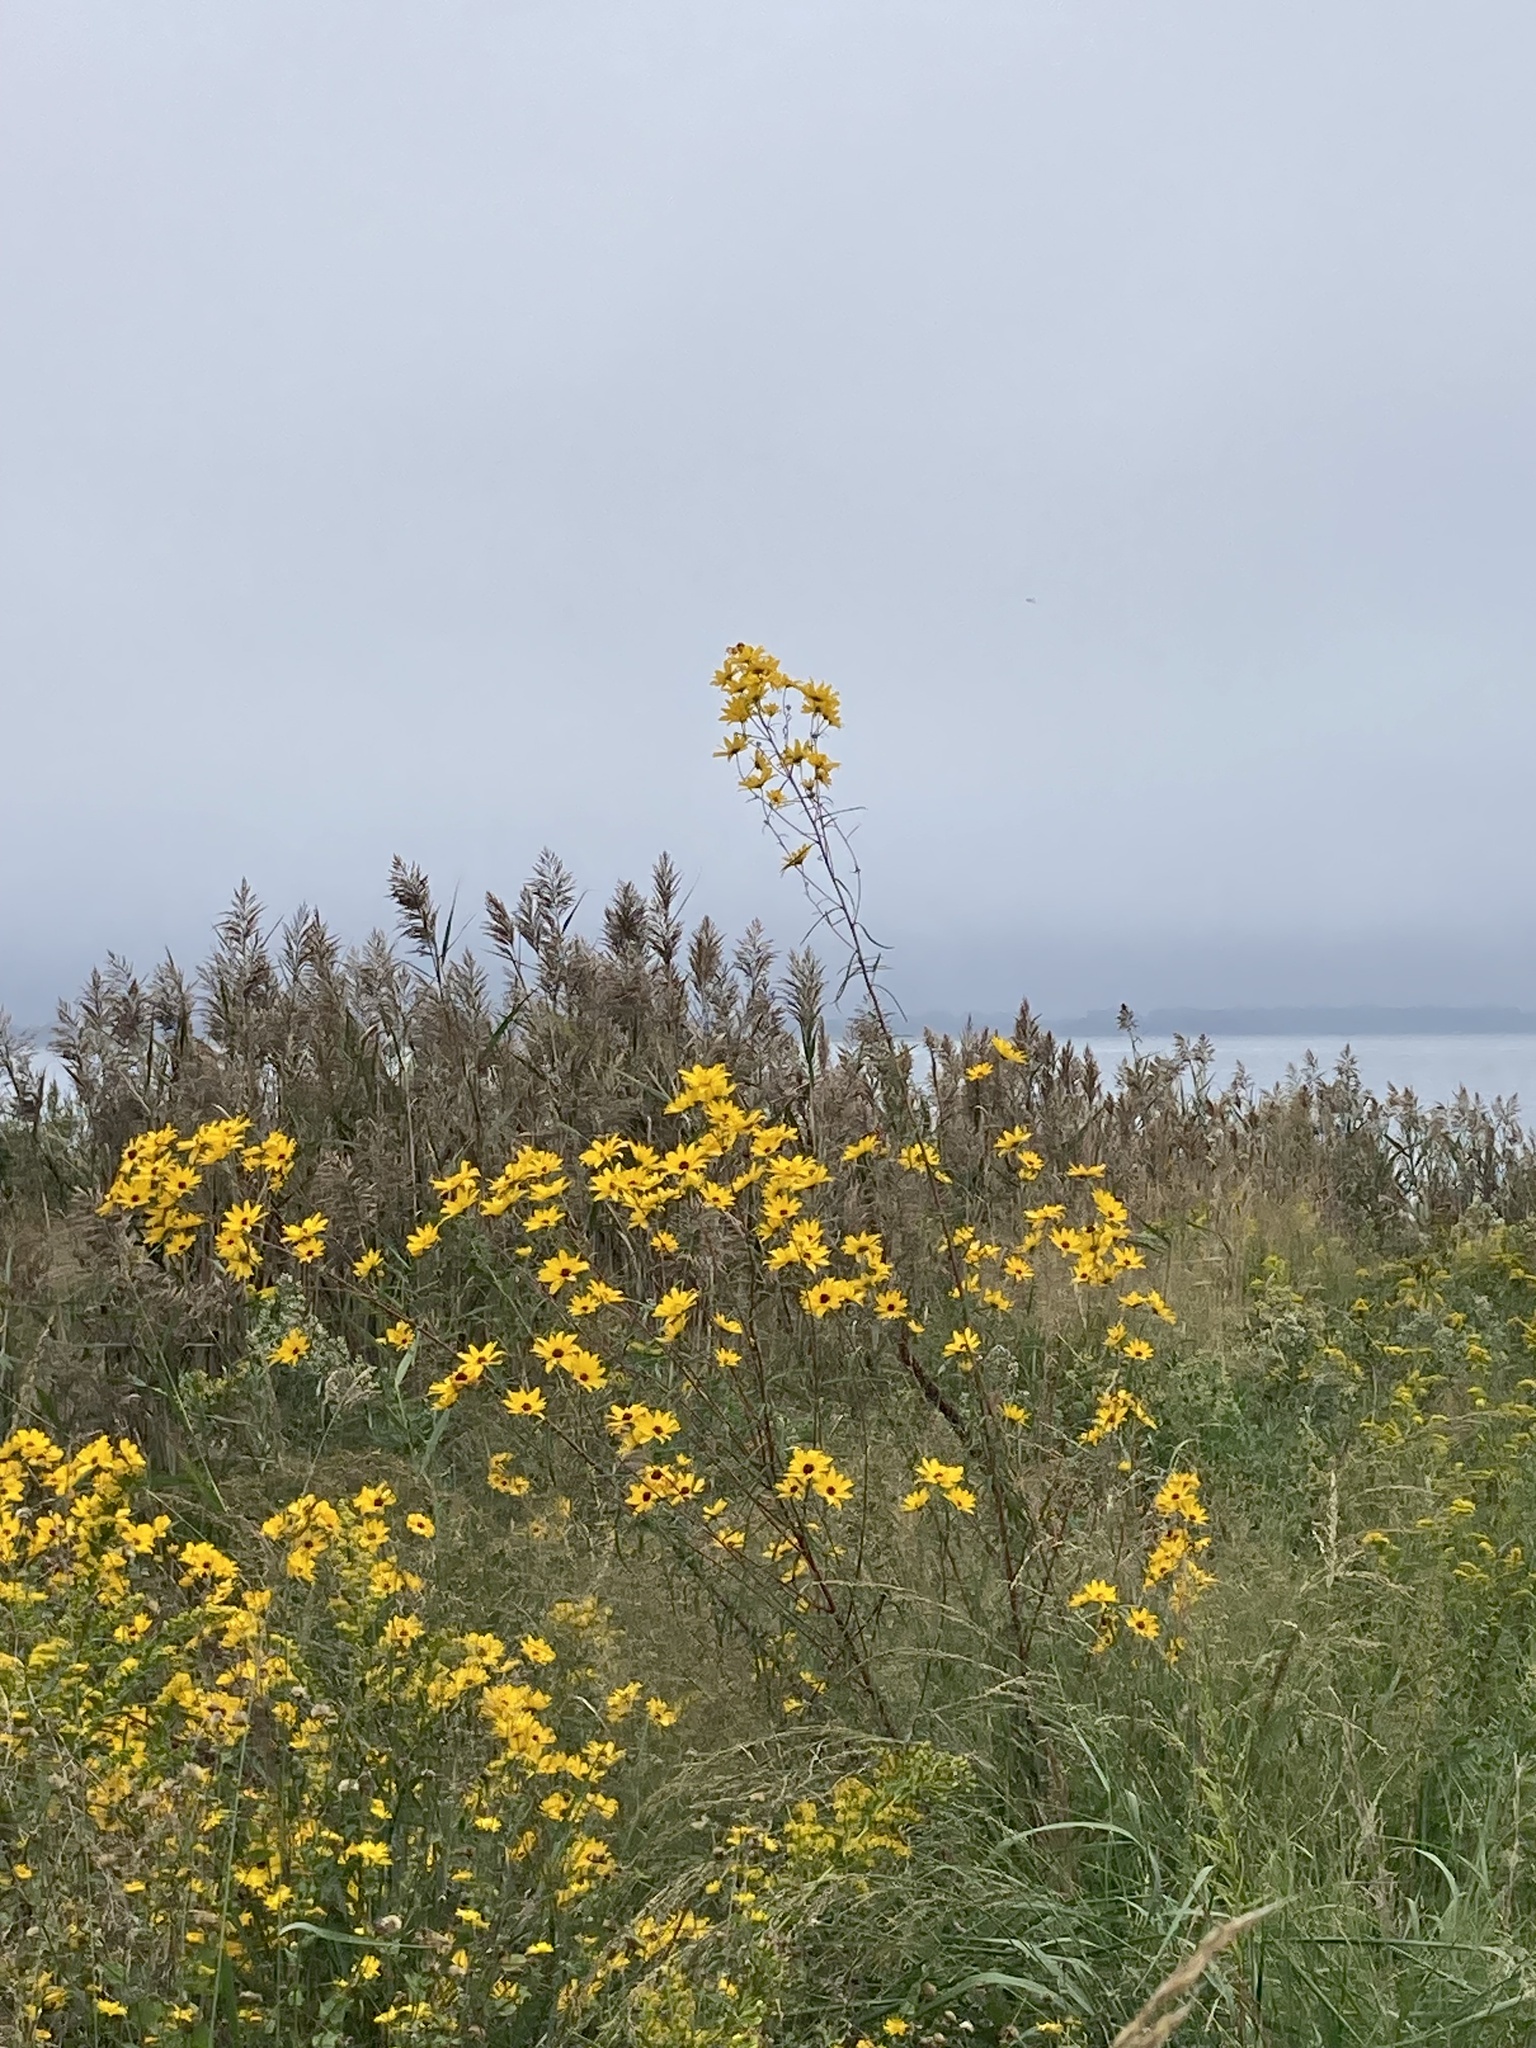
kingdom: Plantae
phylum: Tracheophyta
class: Magnoliopsida
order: Asterales
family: Asteraceae
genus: Helianthus
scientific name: Helianthus angustifolius
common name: Swamp sunflower
